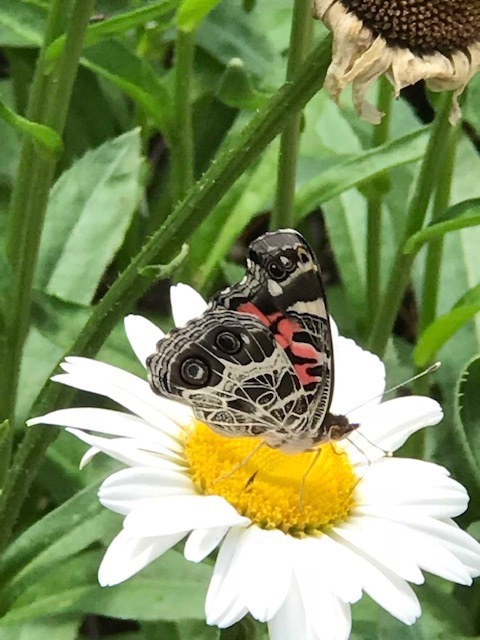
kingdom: Animalia
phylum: Arthropoda
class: Insecta
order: Lepidoptera
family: Nymphalidae
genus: Vanessa
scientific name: Vanessa virginiensis
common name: American lady
